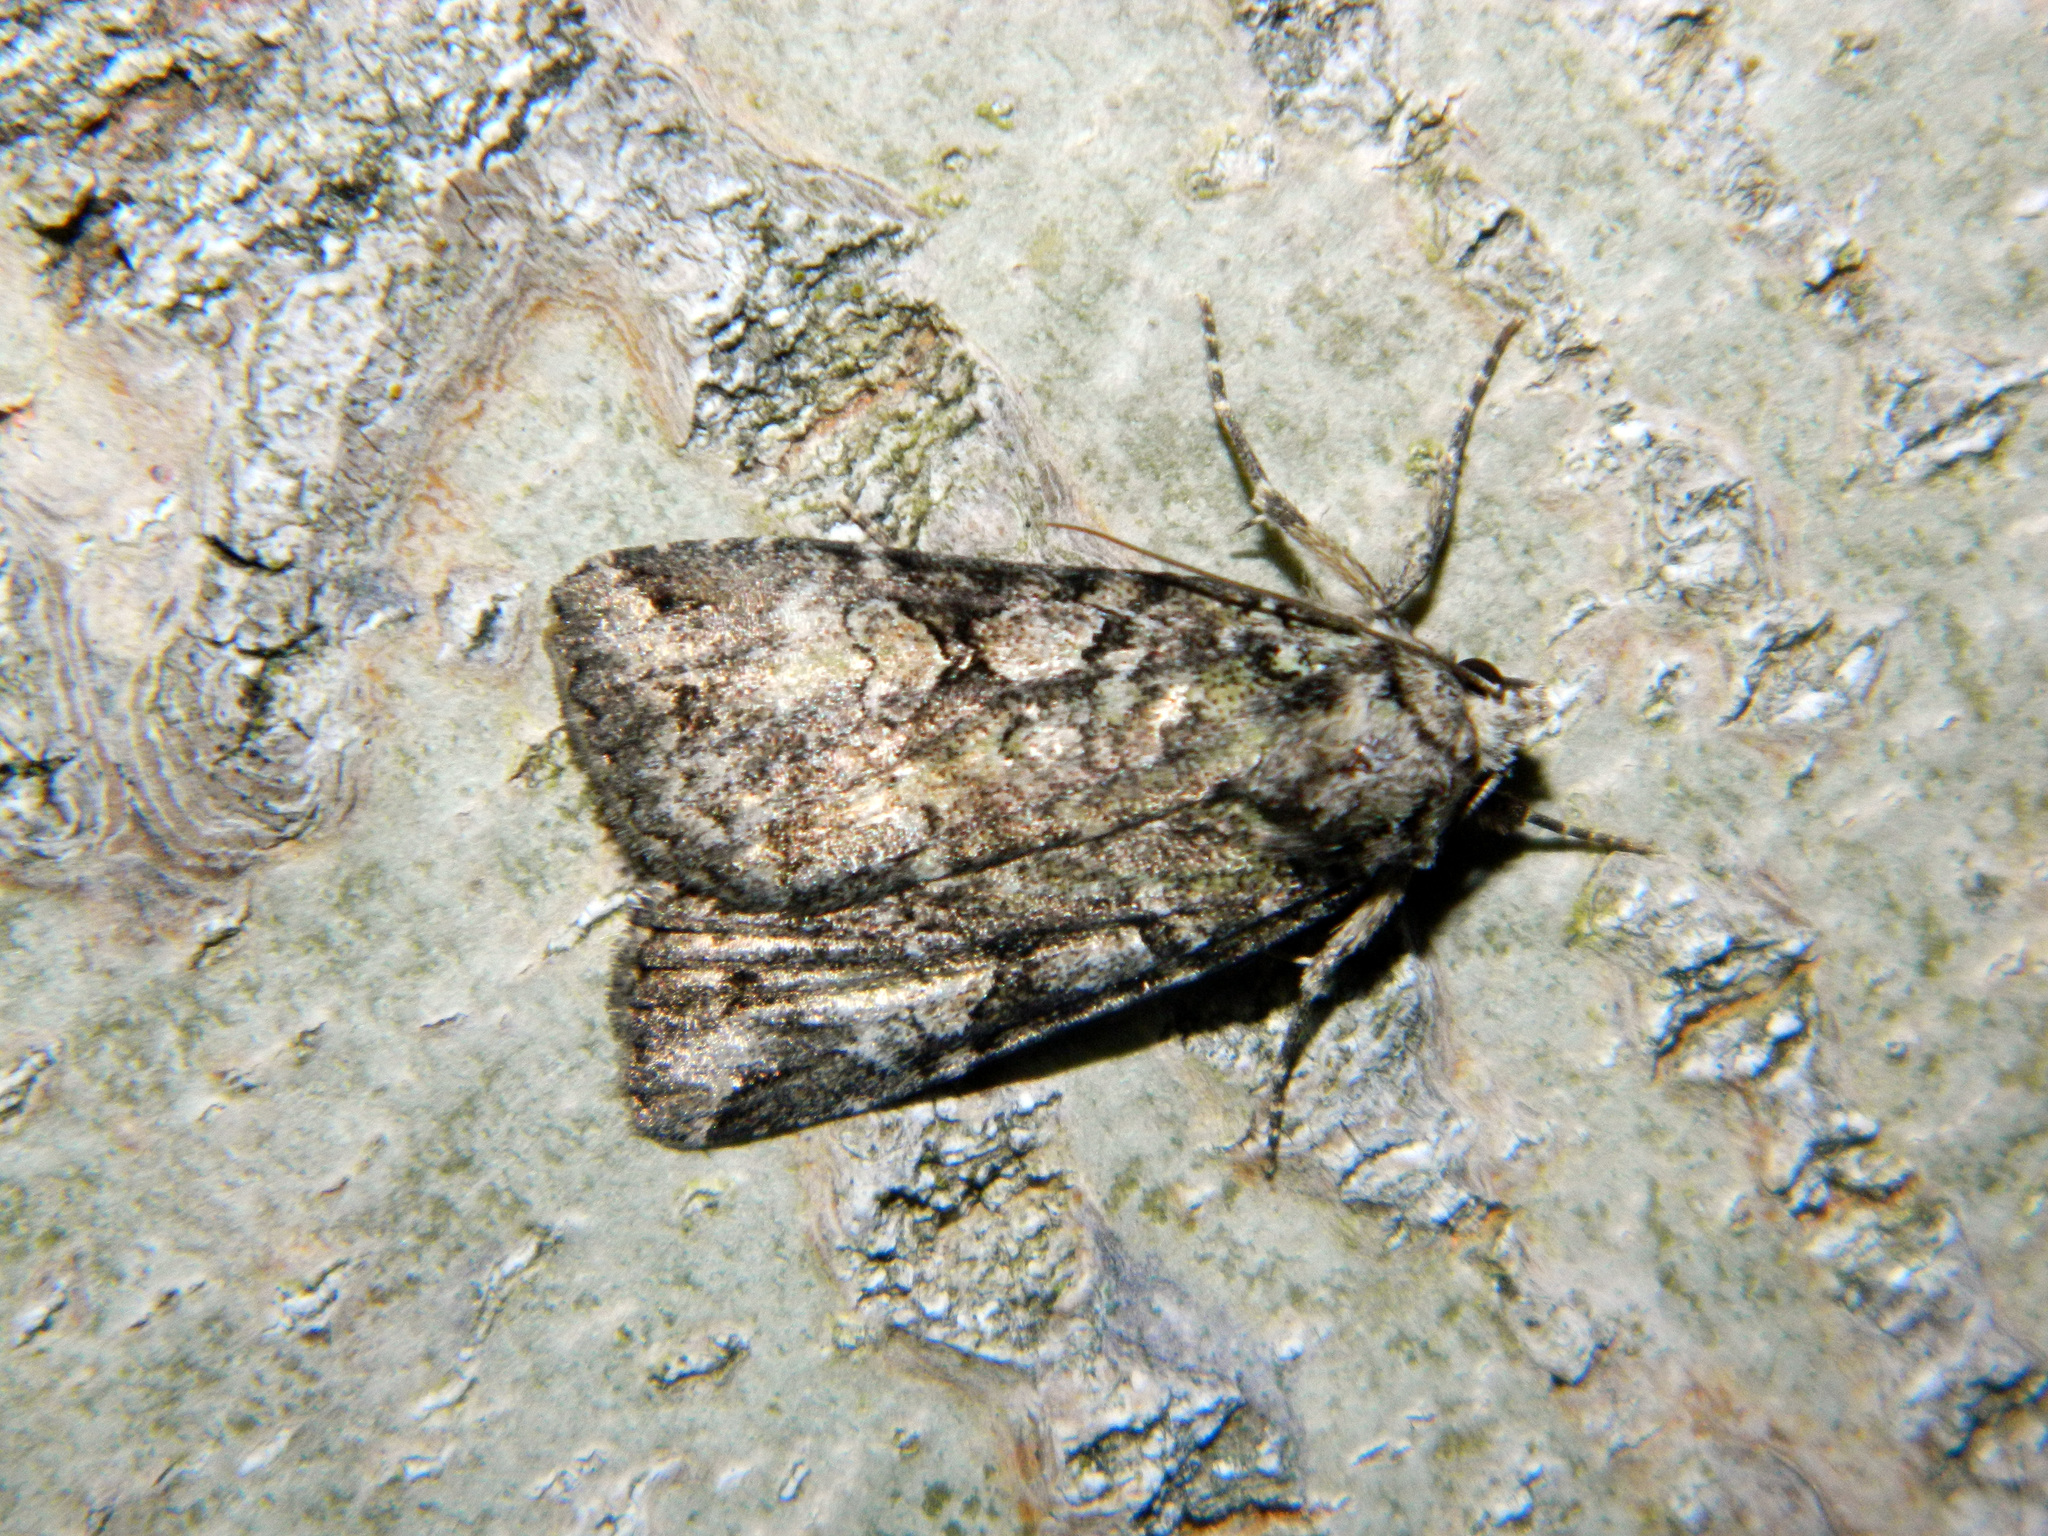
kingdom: Animalia
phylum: Arthropoda
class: Insecta
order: Lepidoptera
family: Noctuidae
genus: Anaplectoides
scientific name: Anaplectoides pressus
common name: Dappled dart
